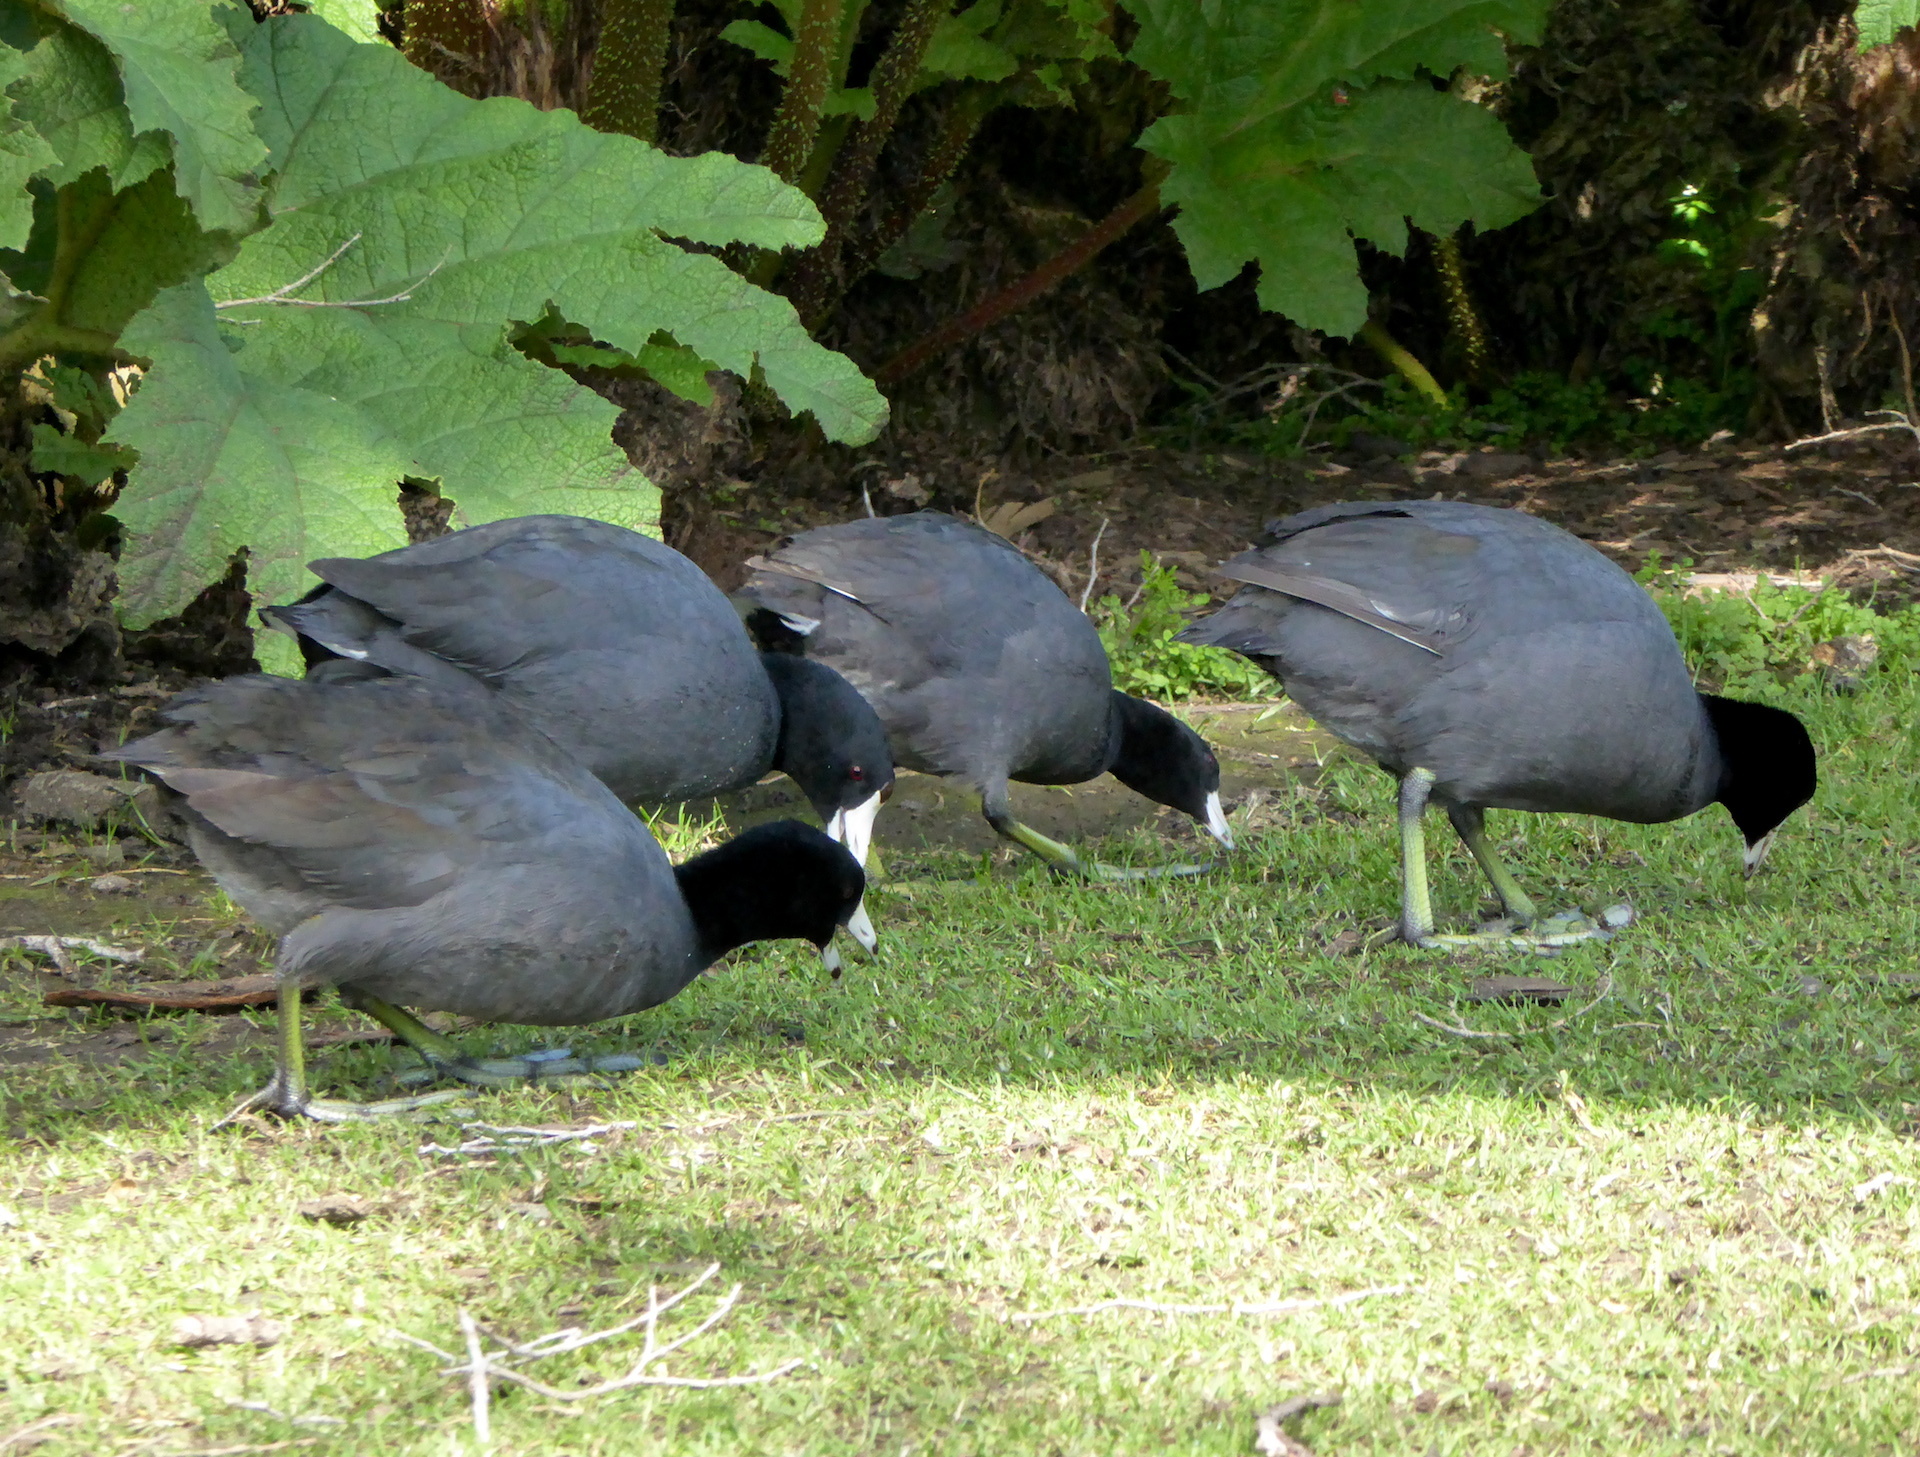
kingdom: Animalia
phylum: Chordata
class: Aves
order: Gruiformes
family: Rallidae
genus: Fulica
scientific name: Fulica americana
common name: American coot
